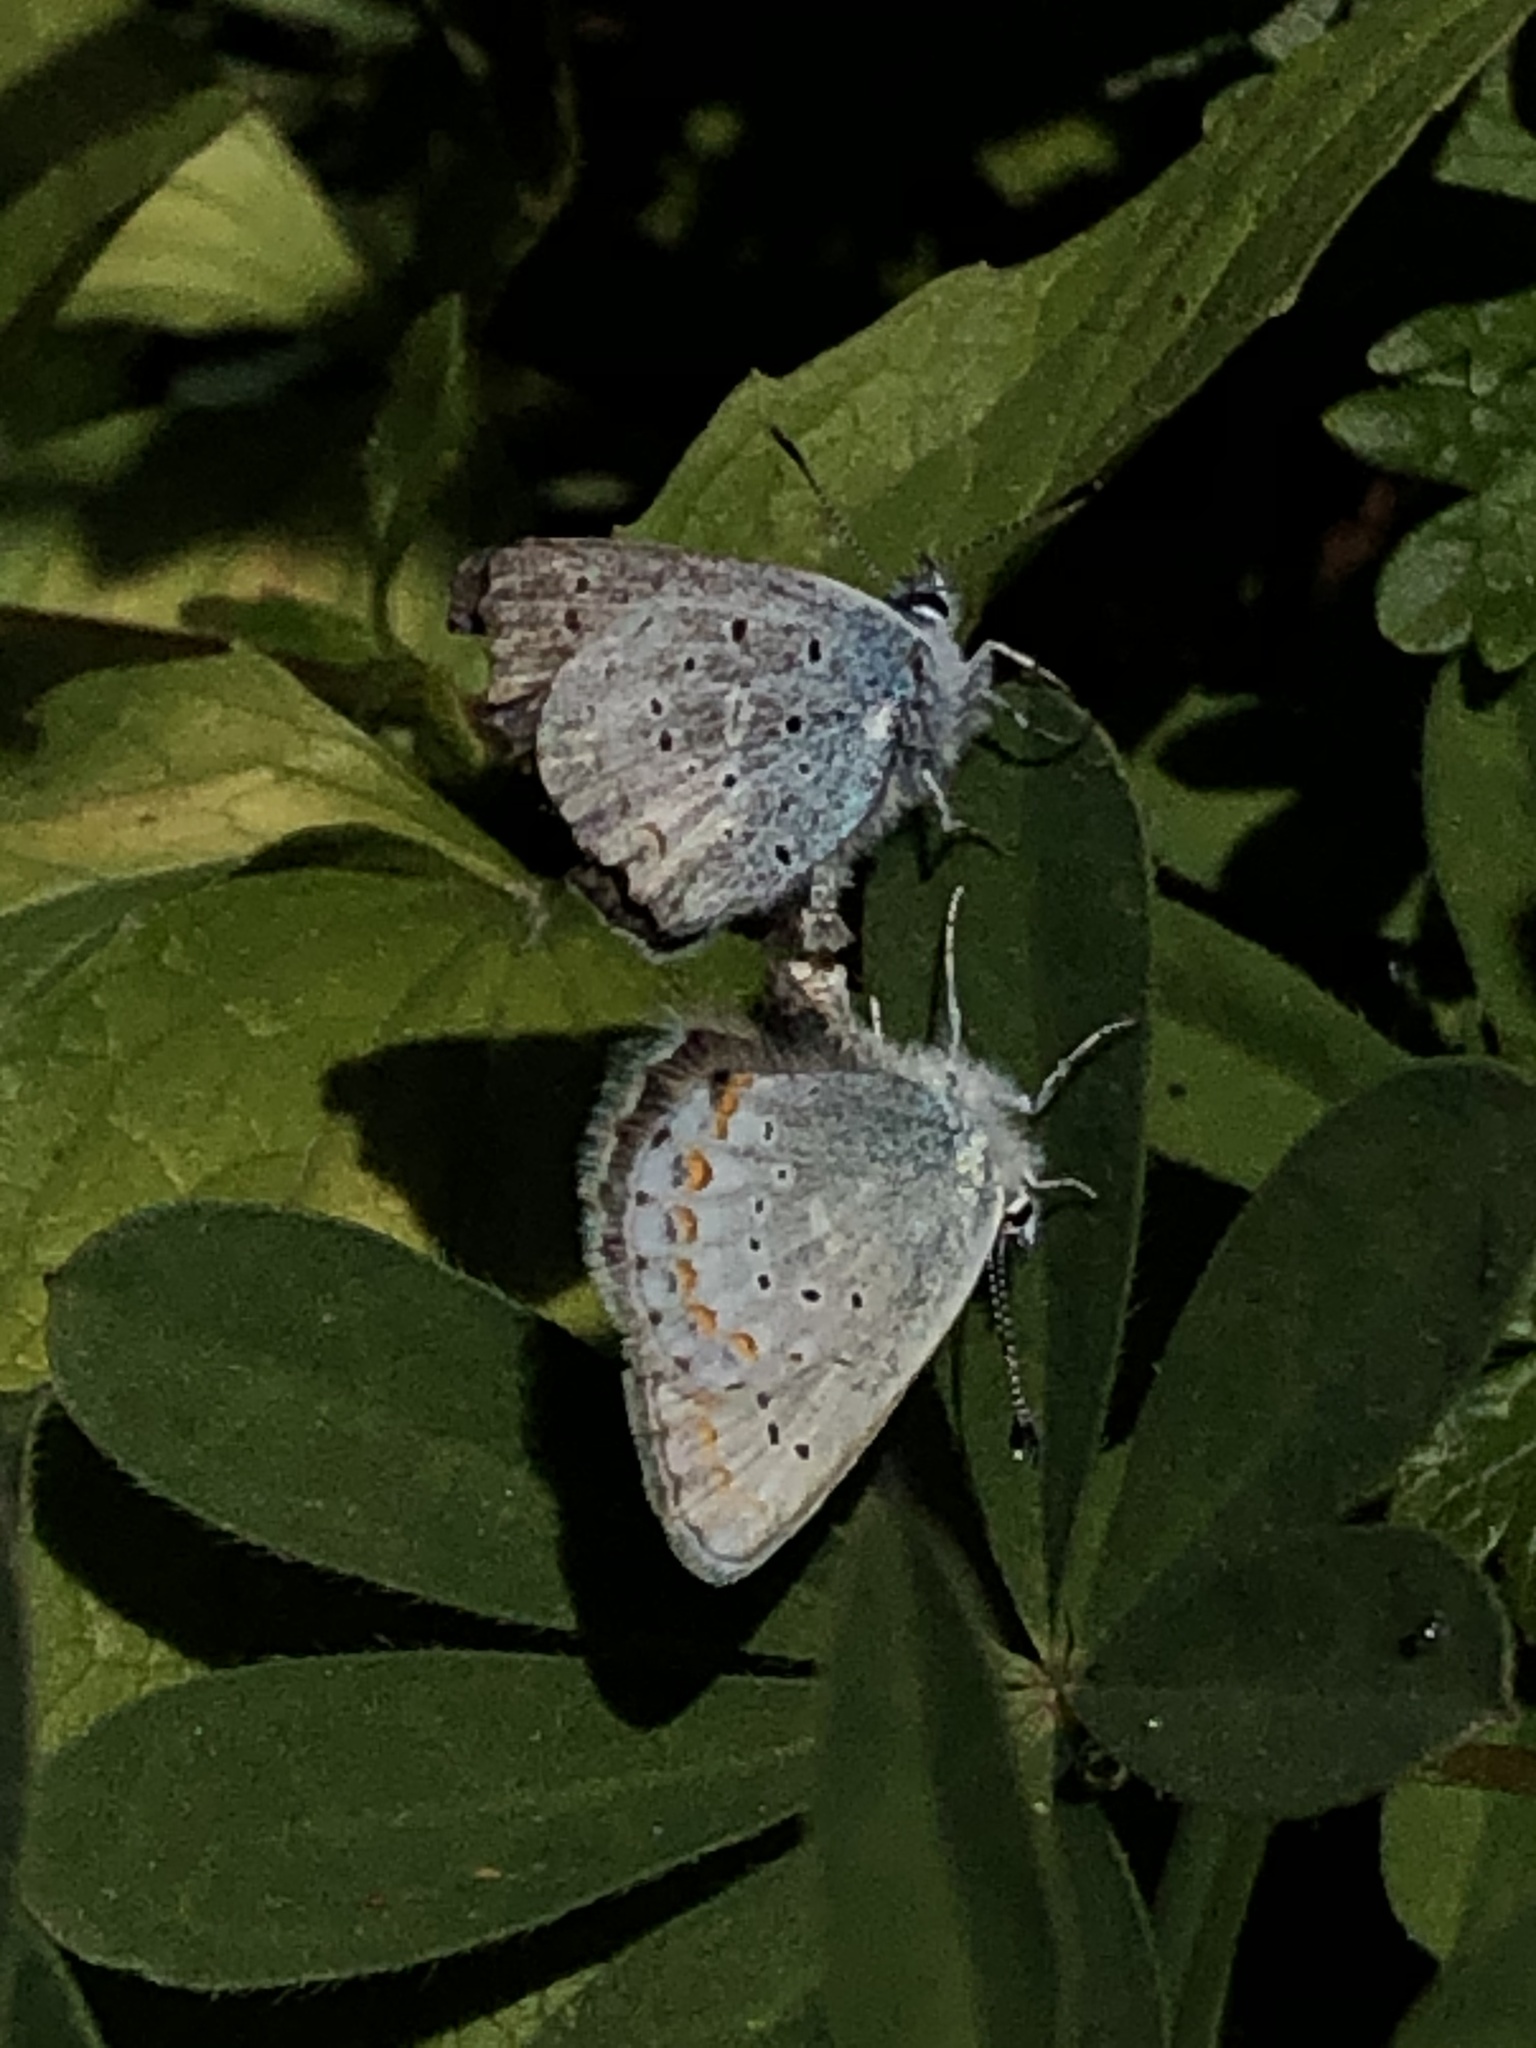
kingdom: Animalia
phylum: Arthropoda
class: Insecta
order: Lepidoptera
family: Lycaenidae
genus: Lycaeides
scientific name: Lycaeides anna
